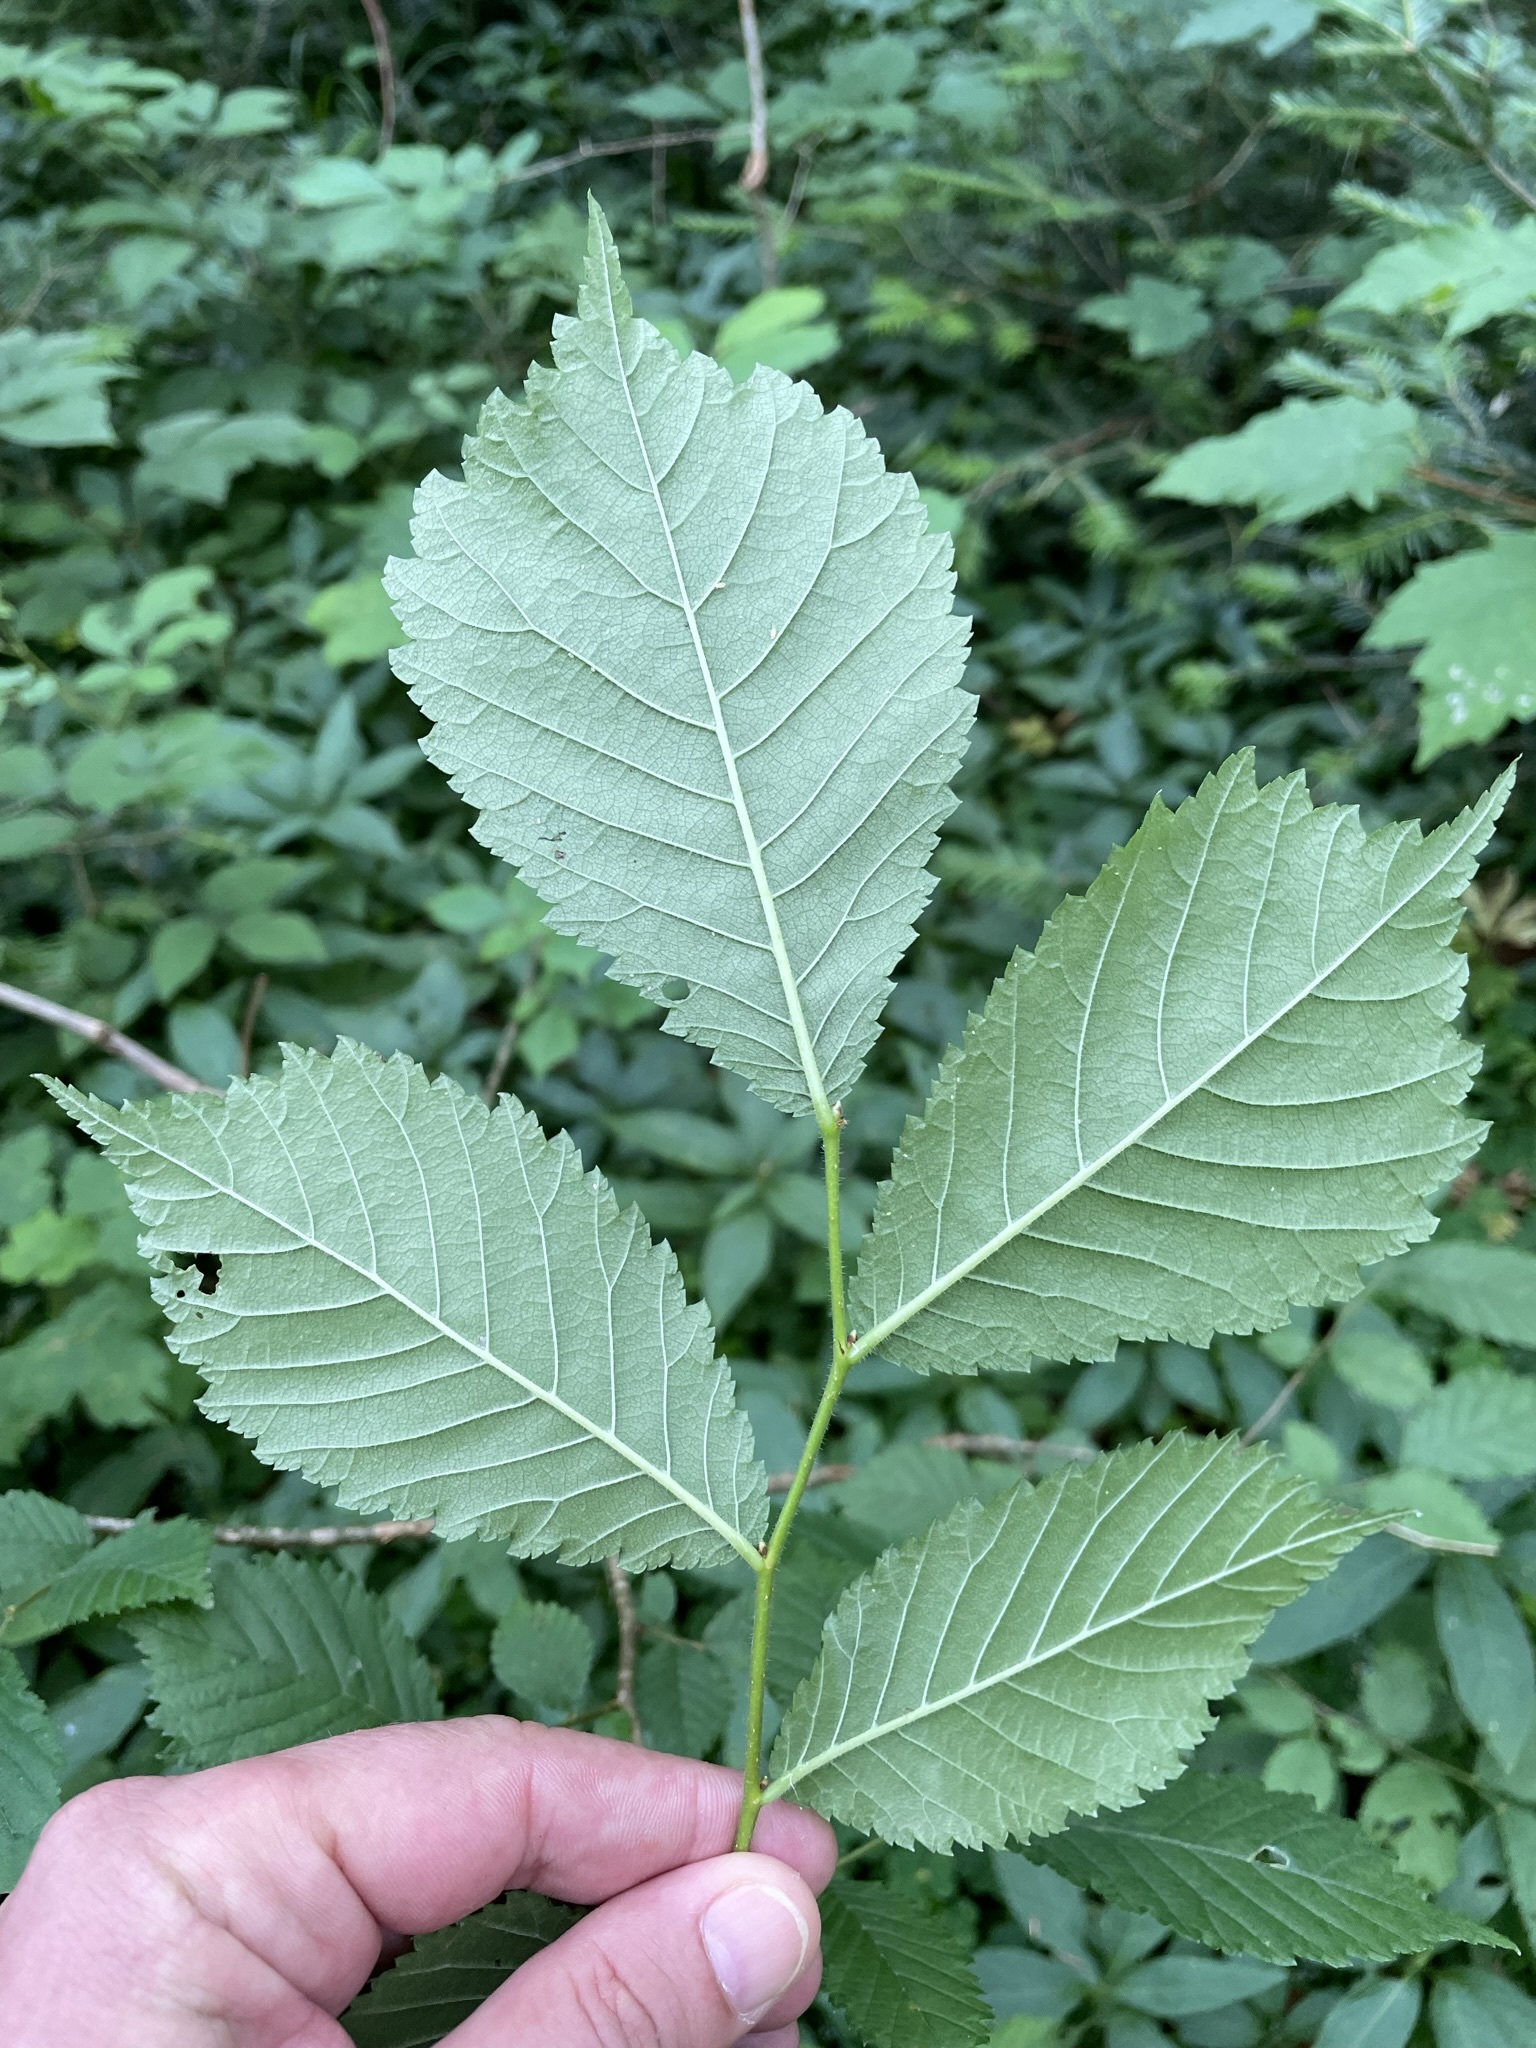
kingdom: Plantae
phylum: Tracheophyta
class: Magnoliopsida
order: Rosales
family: Ulmaceae
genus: Ulmus
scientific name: Ulmus glabra
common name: Wych elm
